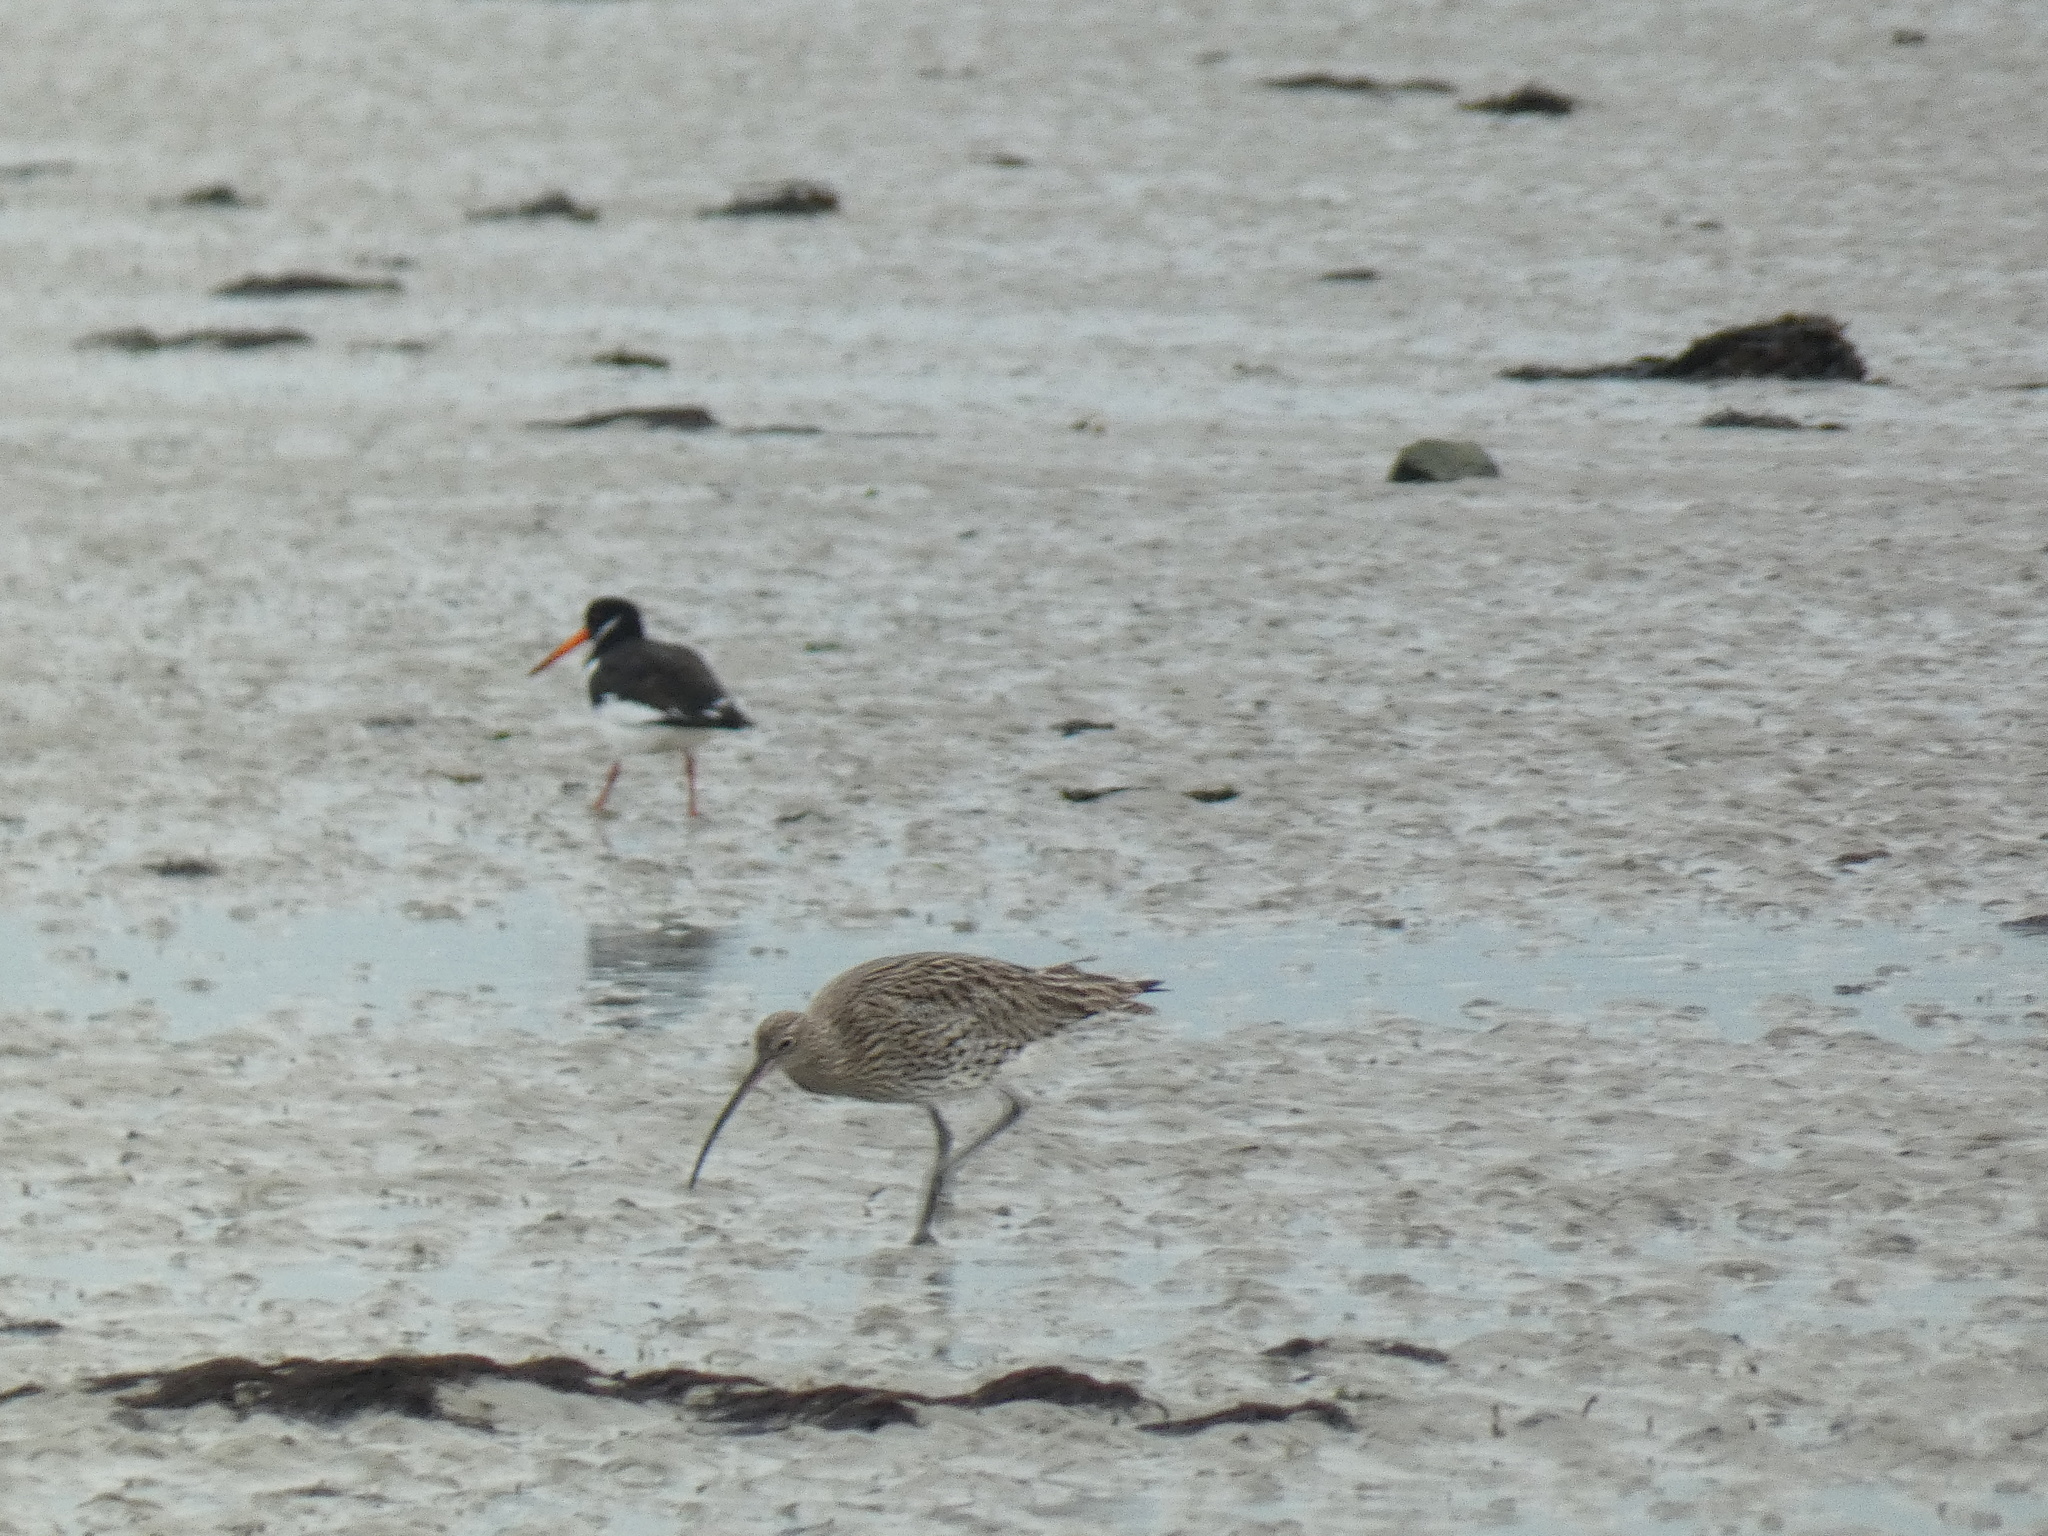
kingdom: Animalia
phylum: Chordata
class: Aves
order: Charadriiformes
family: Scolopacidae
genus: Numenius
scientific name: Numenius arquata
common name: Eurasian curlew
